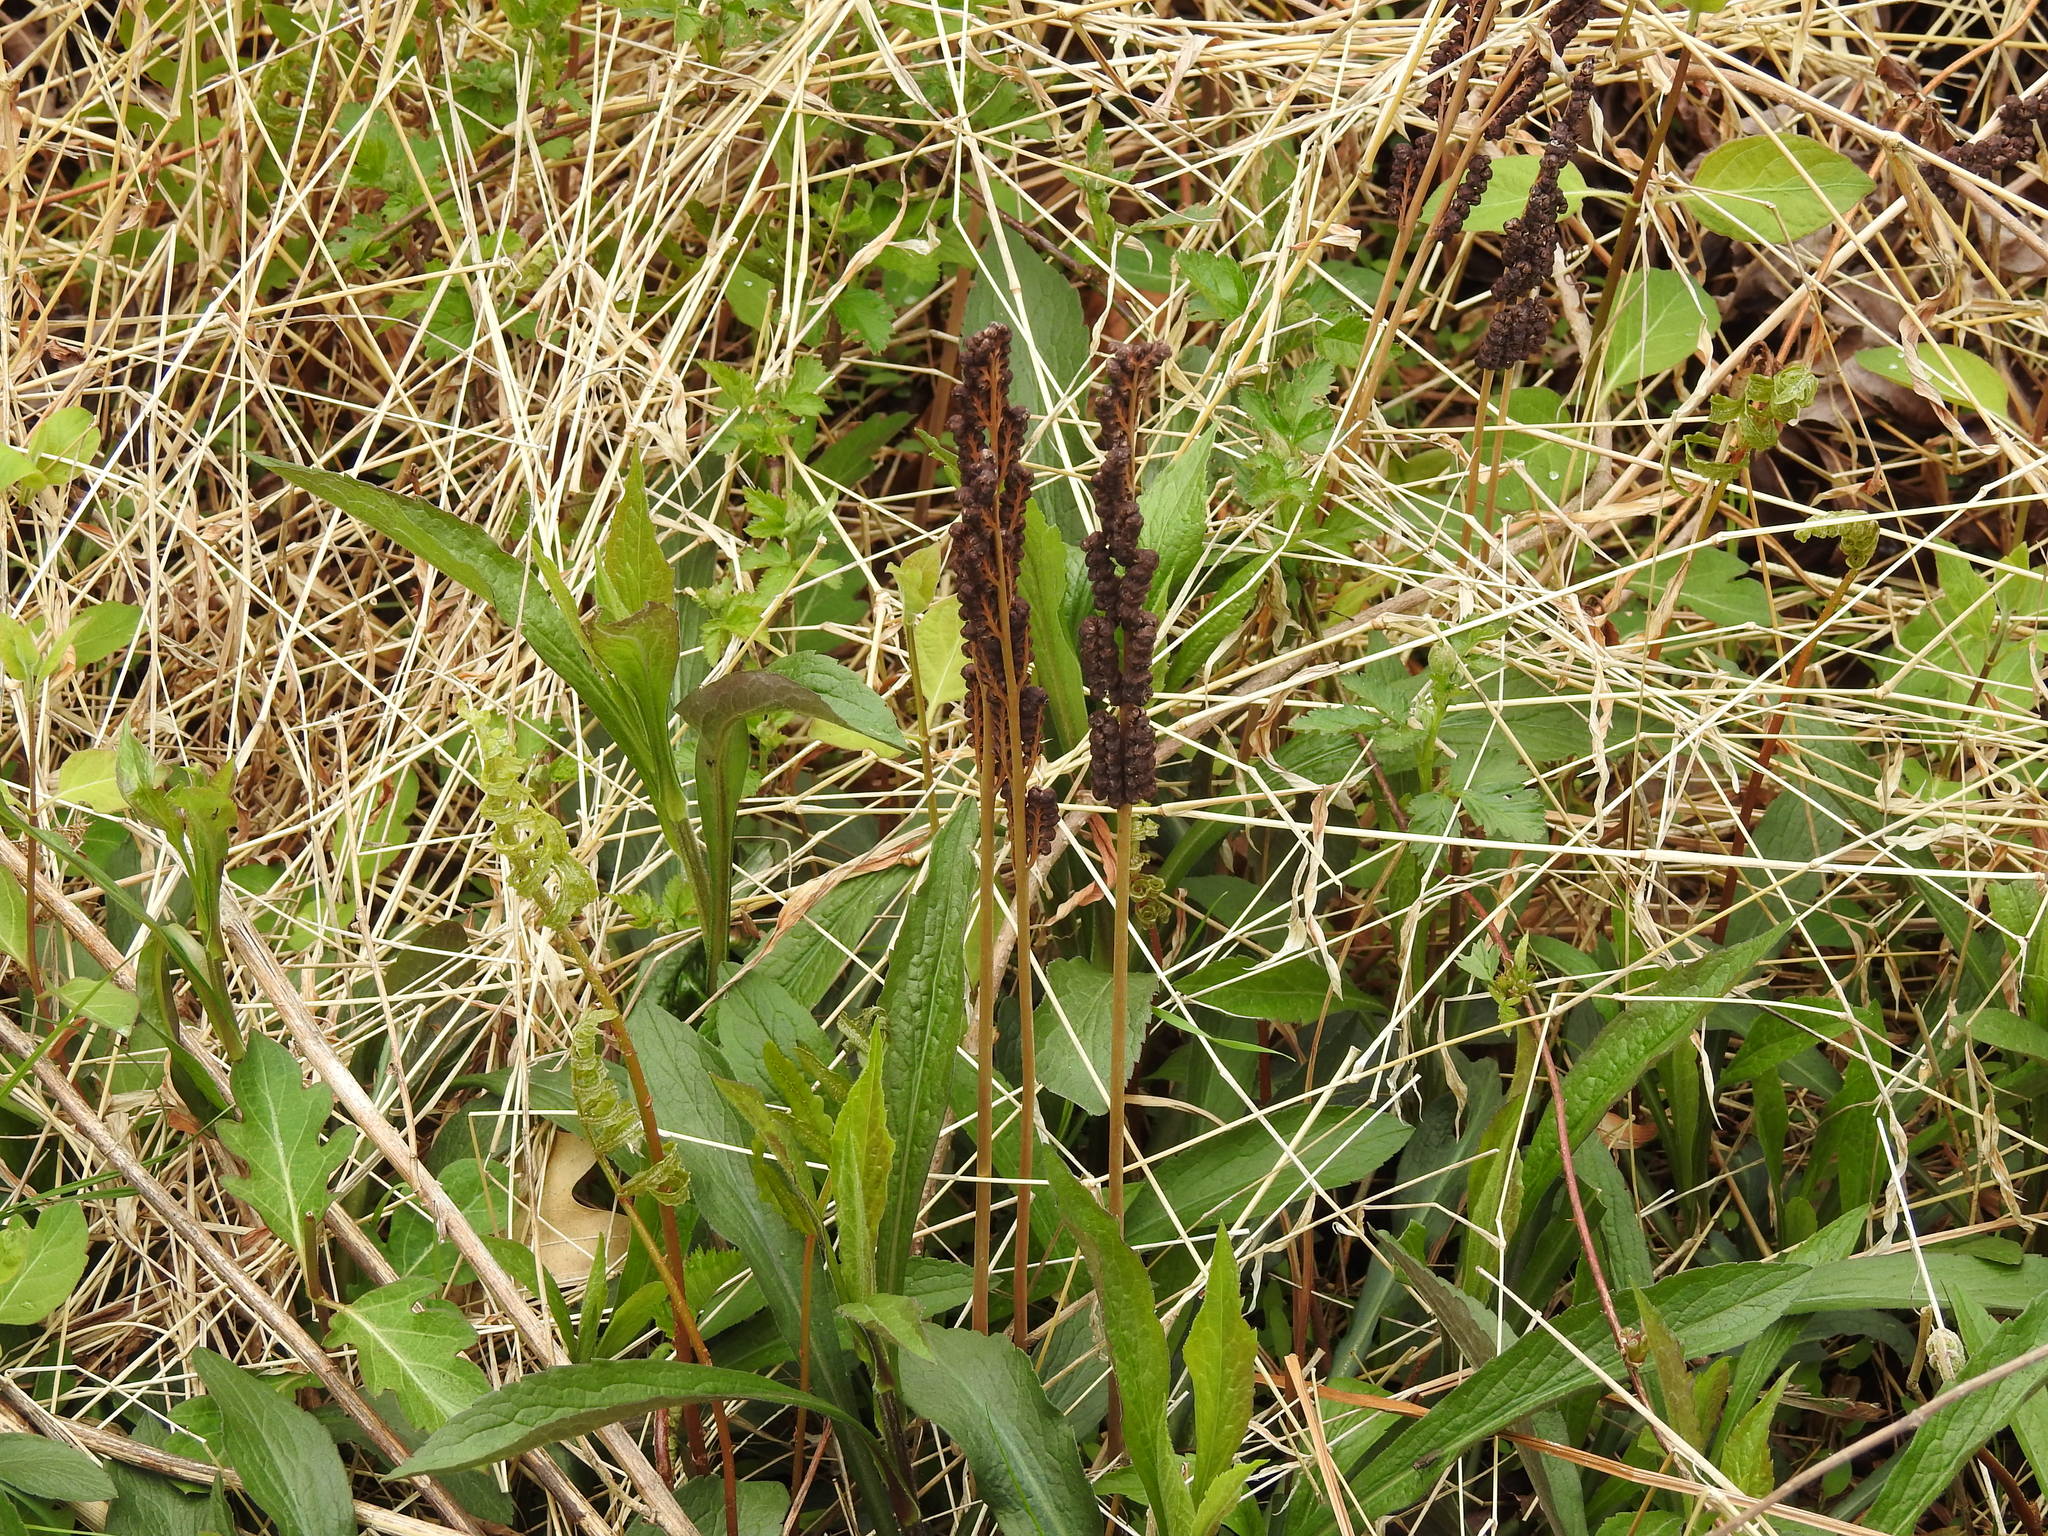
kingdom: Plantae
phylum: Tracheophyta
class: Polypodiopsida
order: Polypodiales
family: Onocleaceae
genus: Onoclea
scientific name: Onoclea sensibilis
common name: Sensitive fern
